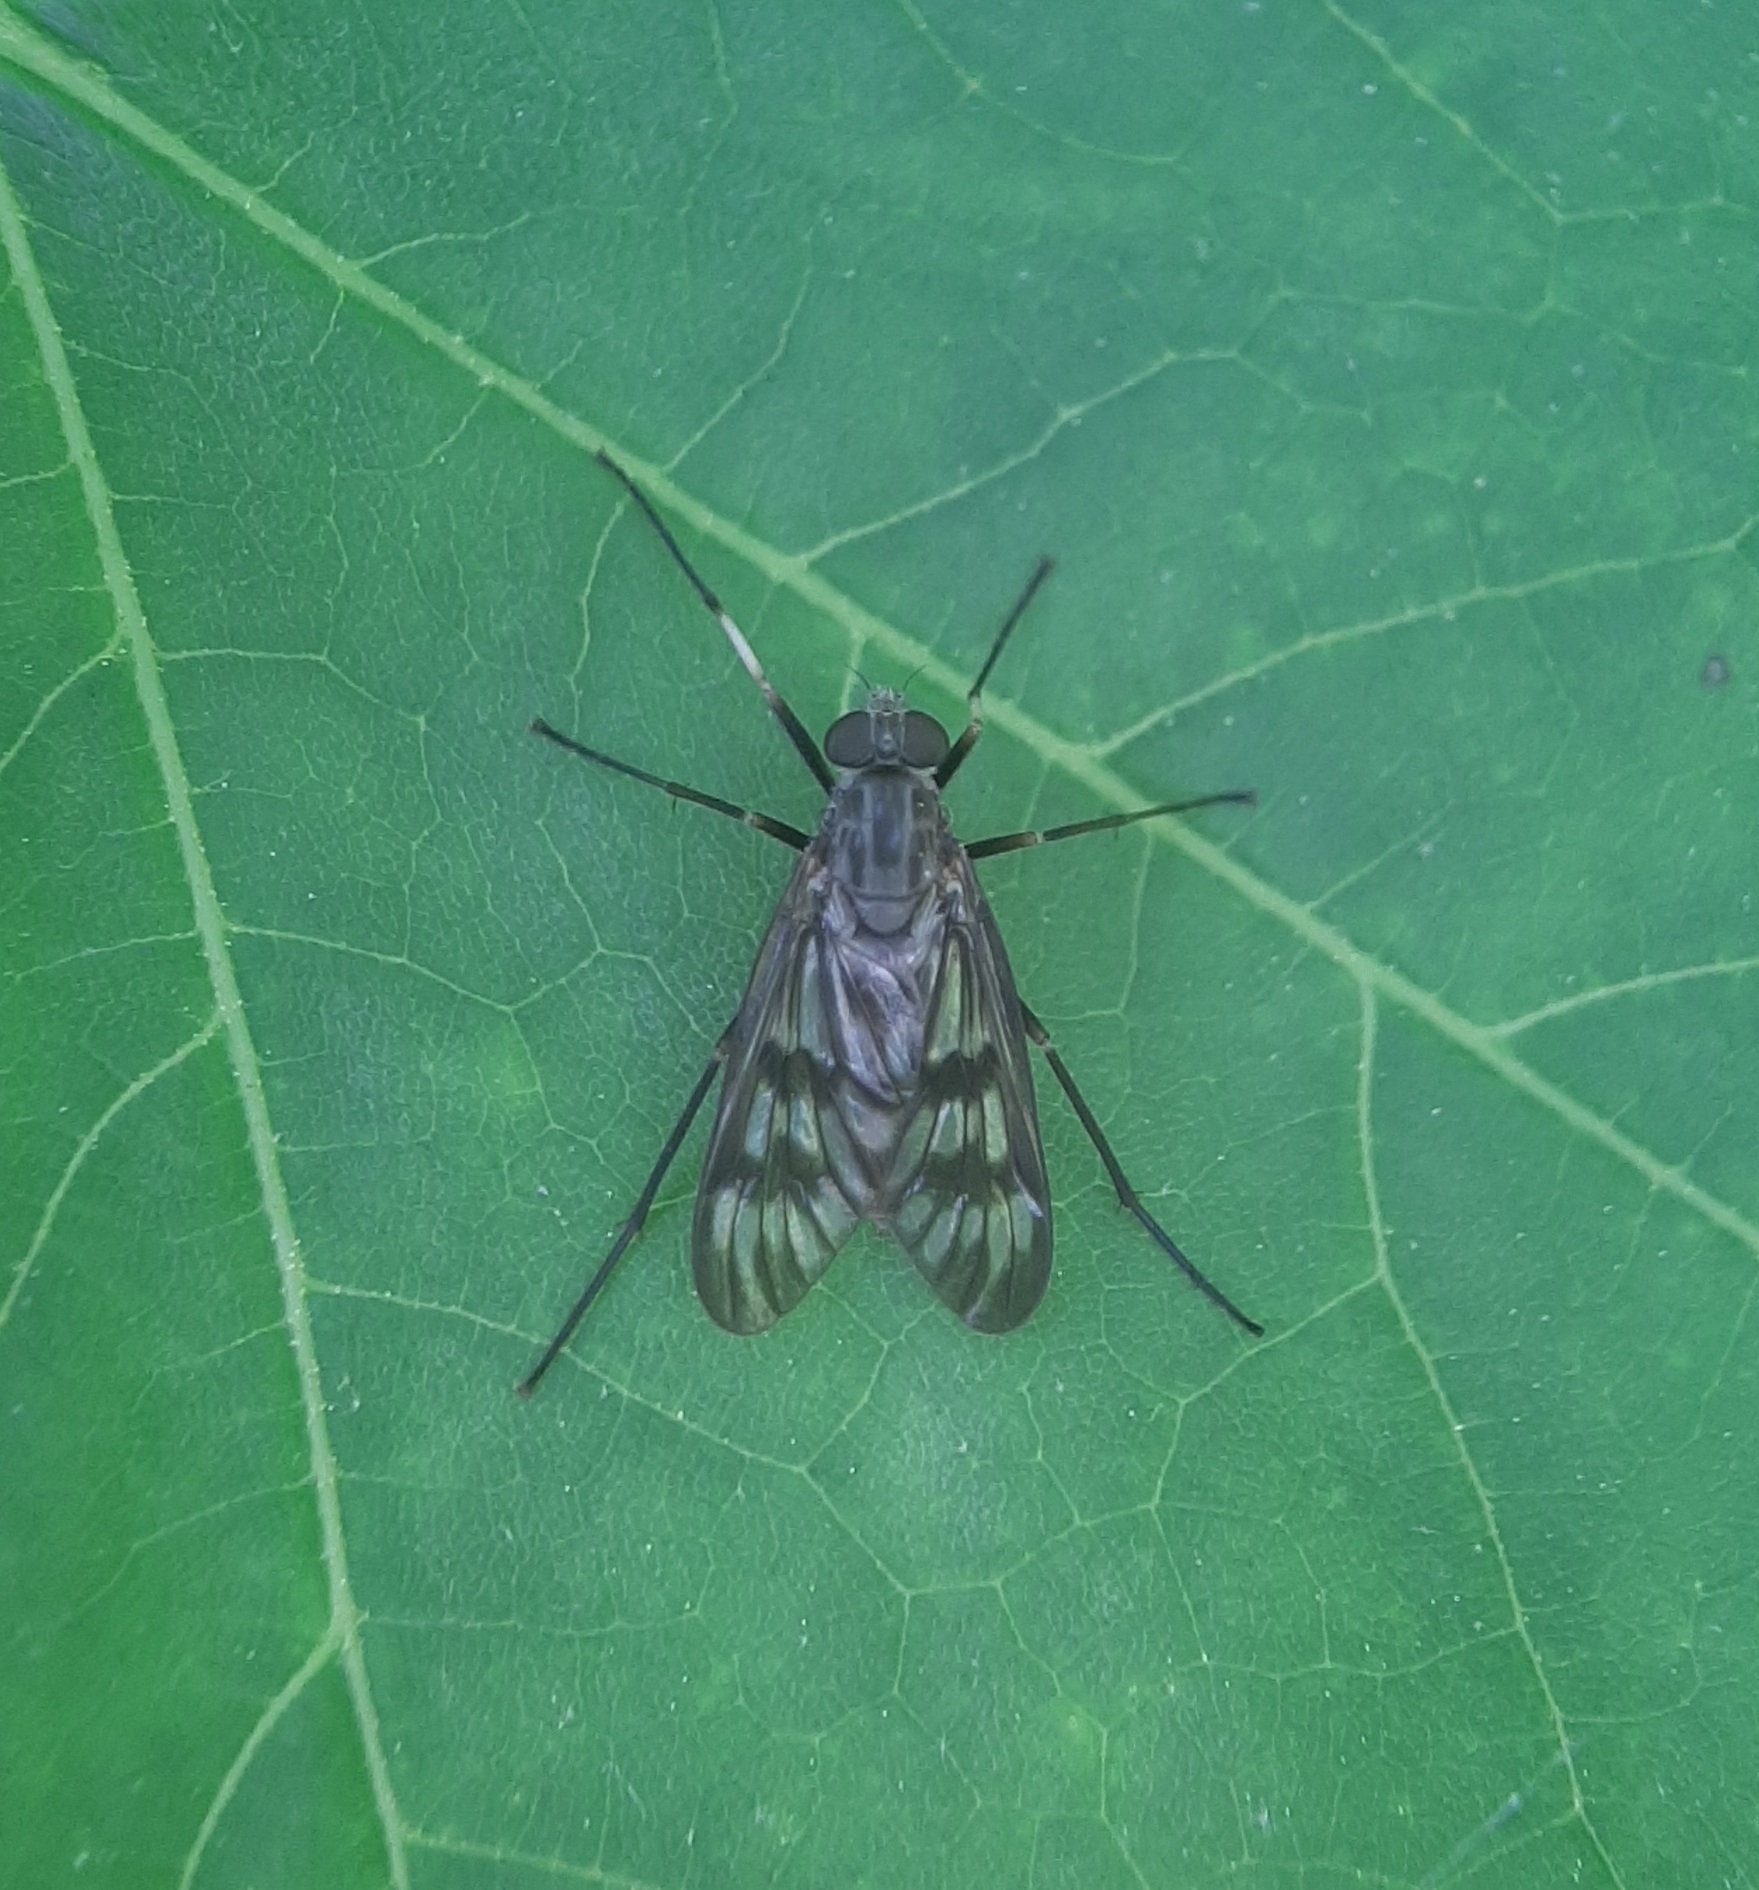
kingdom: Animalia
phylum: Arthropoda
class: Insecta
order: Diptera
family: Rhagionidae
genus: Rhagio
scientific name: Rhagio mystaceus
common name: Common snipe fly
